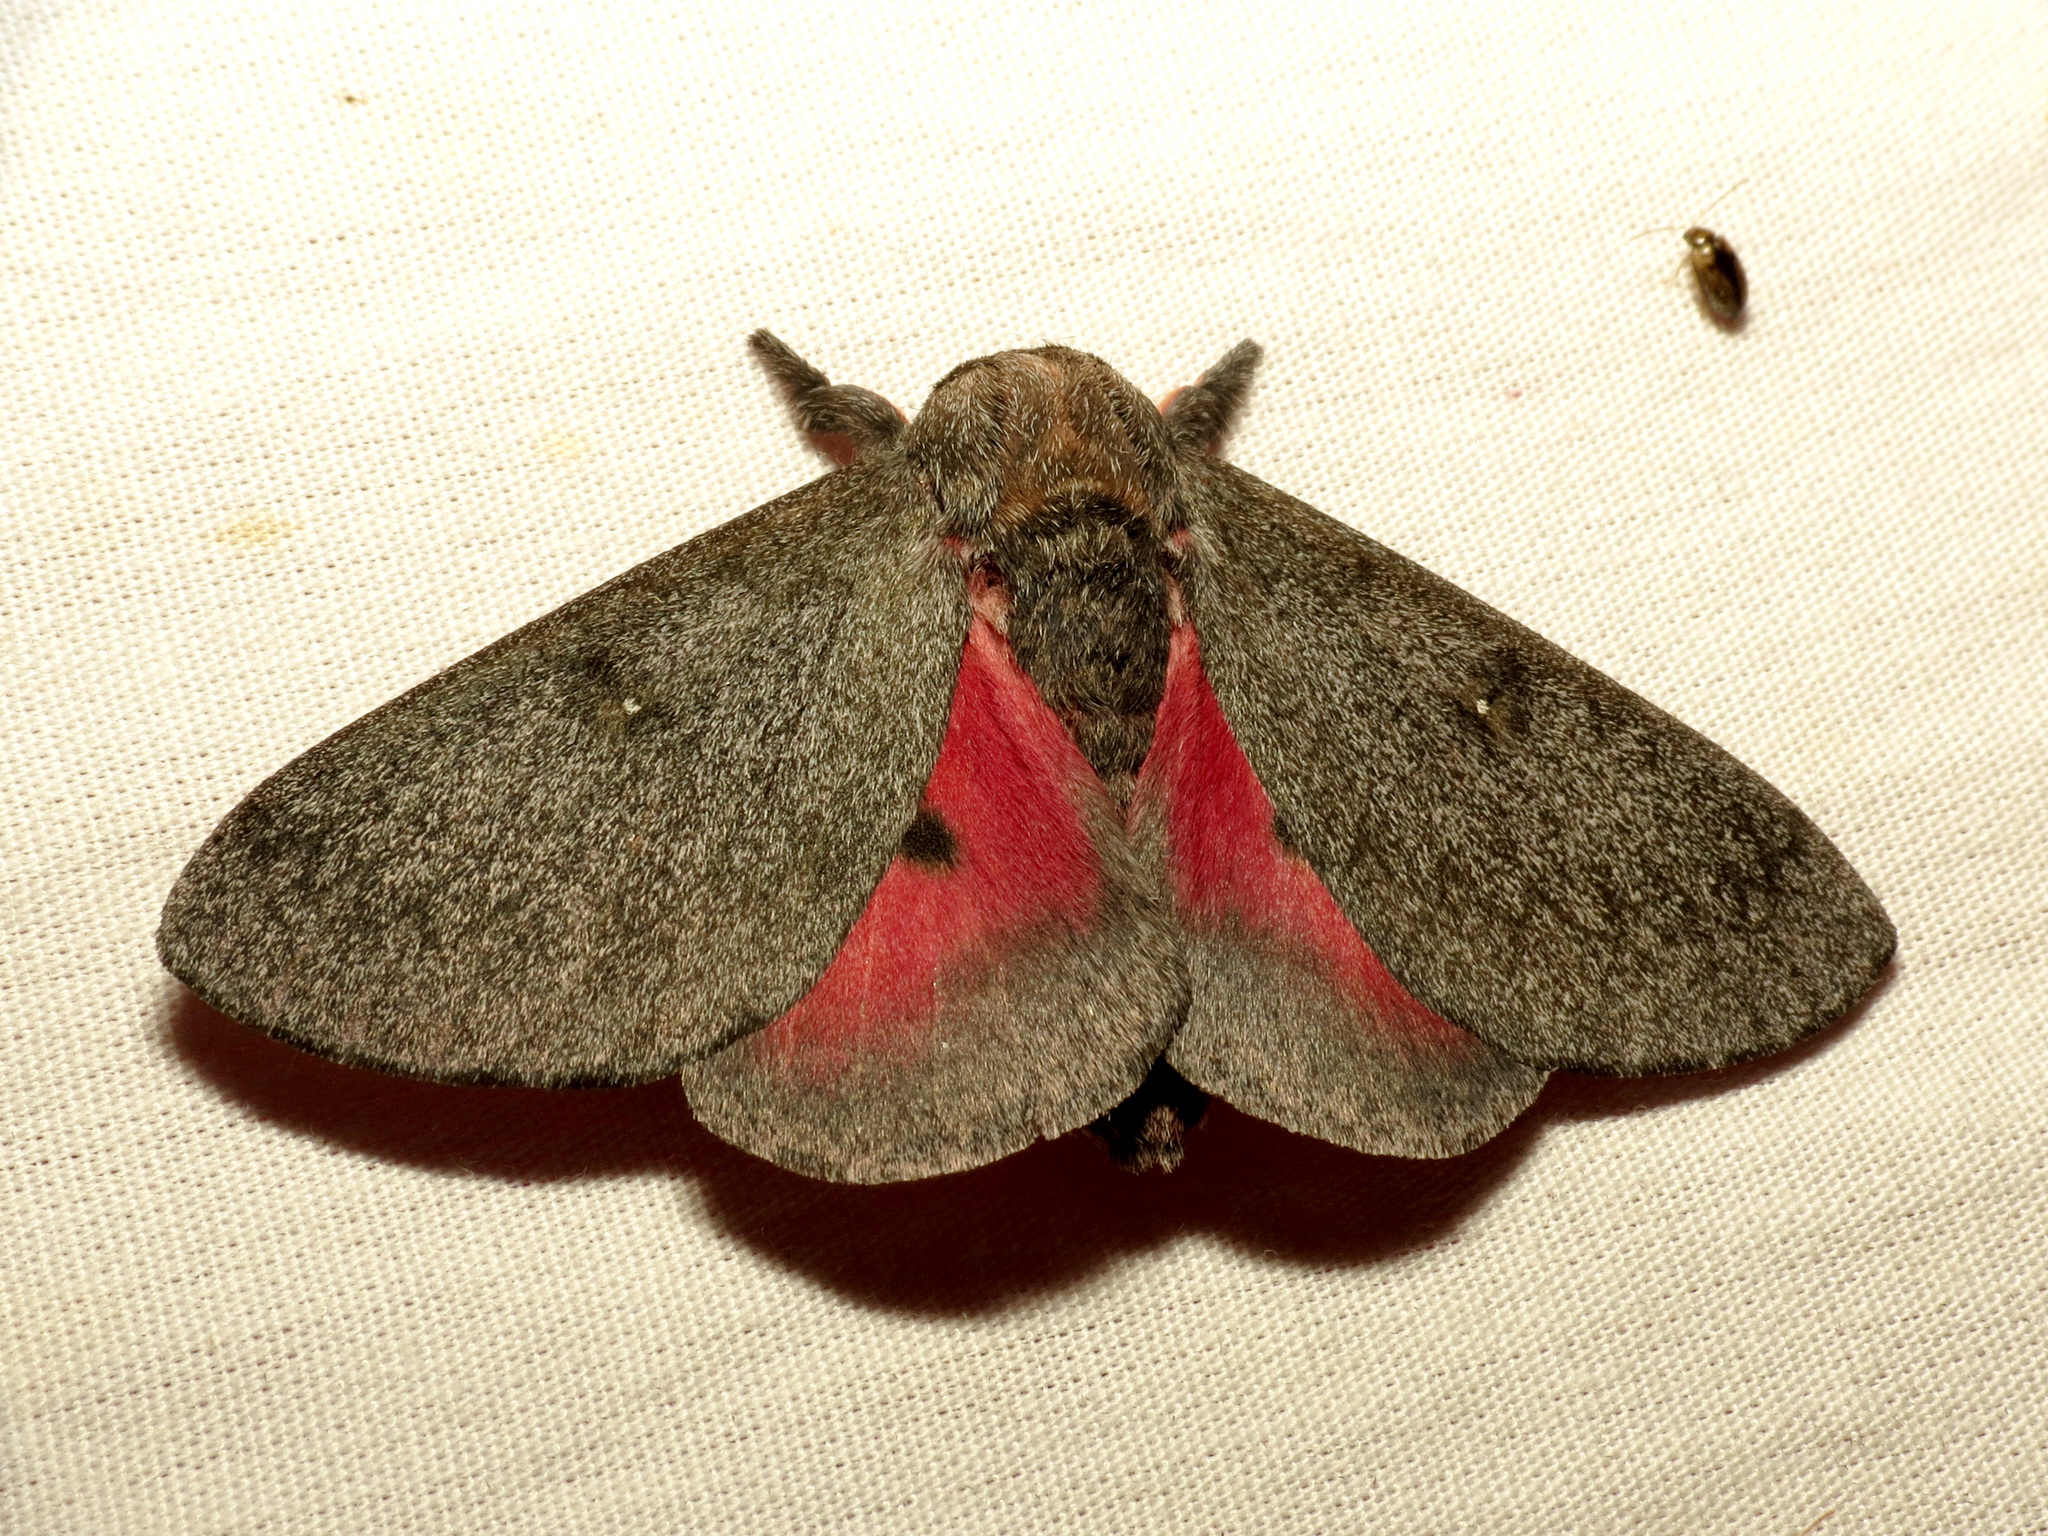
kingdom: Animalia
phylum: Arthropoda
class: Insecta
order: Lepidoptera
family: Saturniidae
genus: Syssphinx
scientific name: Syssphinx hubbardi
